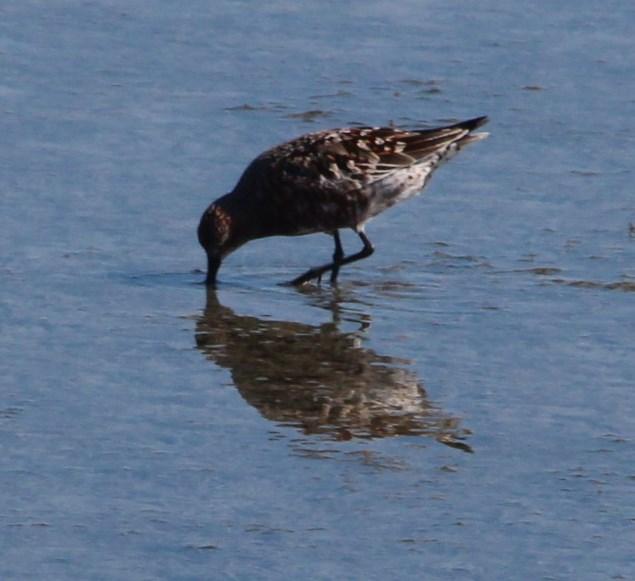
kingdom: Animalia
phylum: Chordata
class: Aves
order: Charadriiformes
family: Scolopacidae
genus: Calidris
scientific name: Calidris ferruginea
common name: Curlew sandpiper
